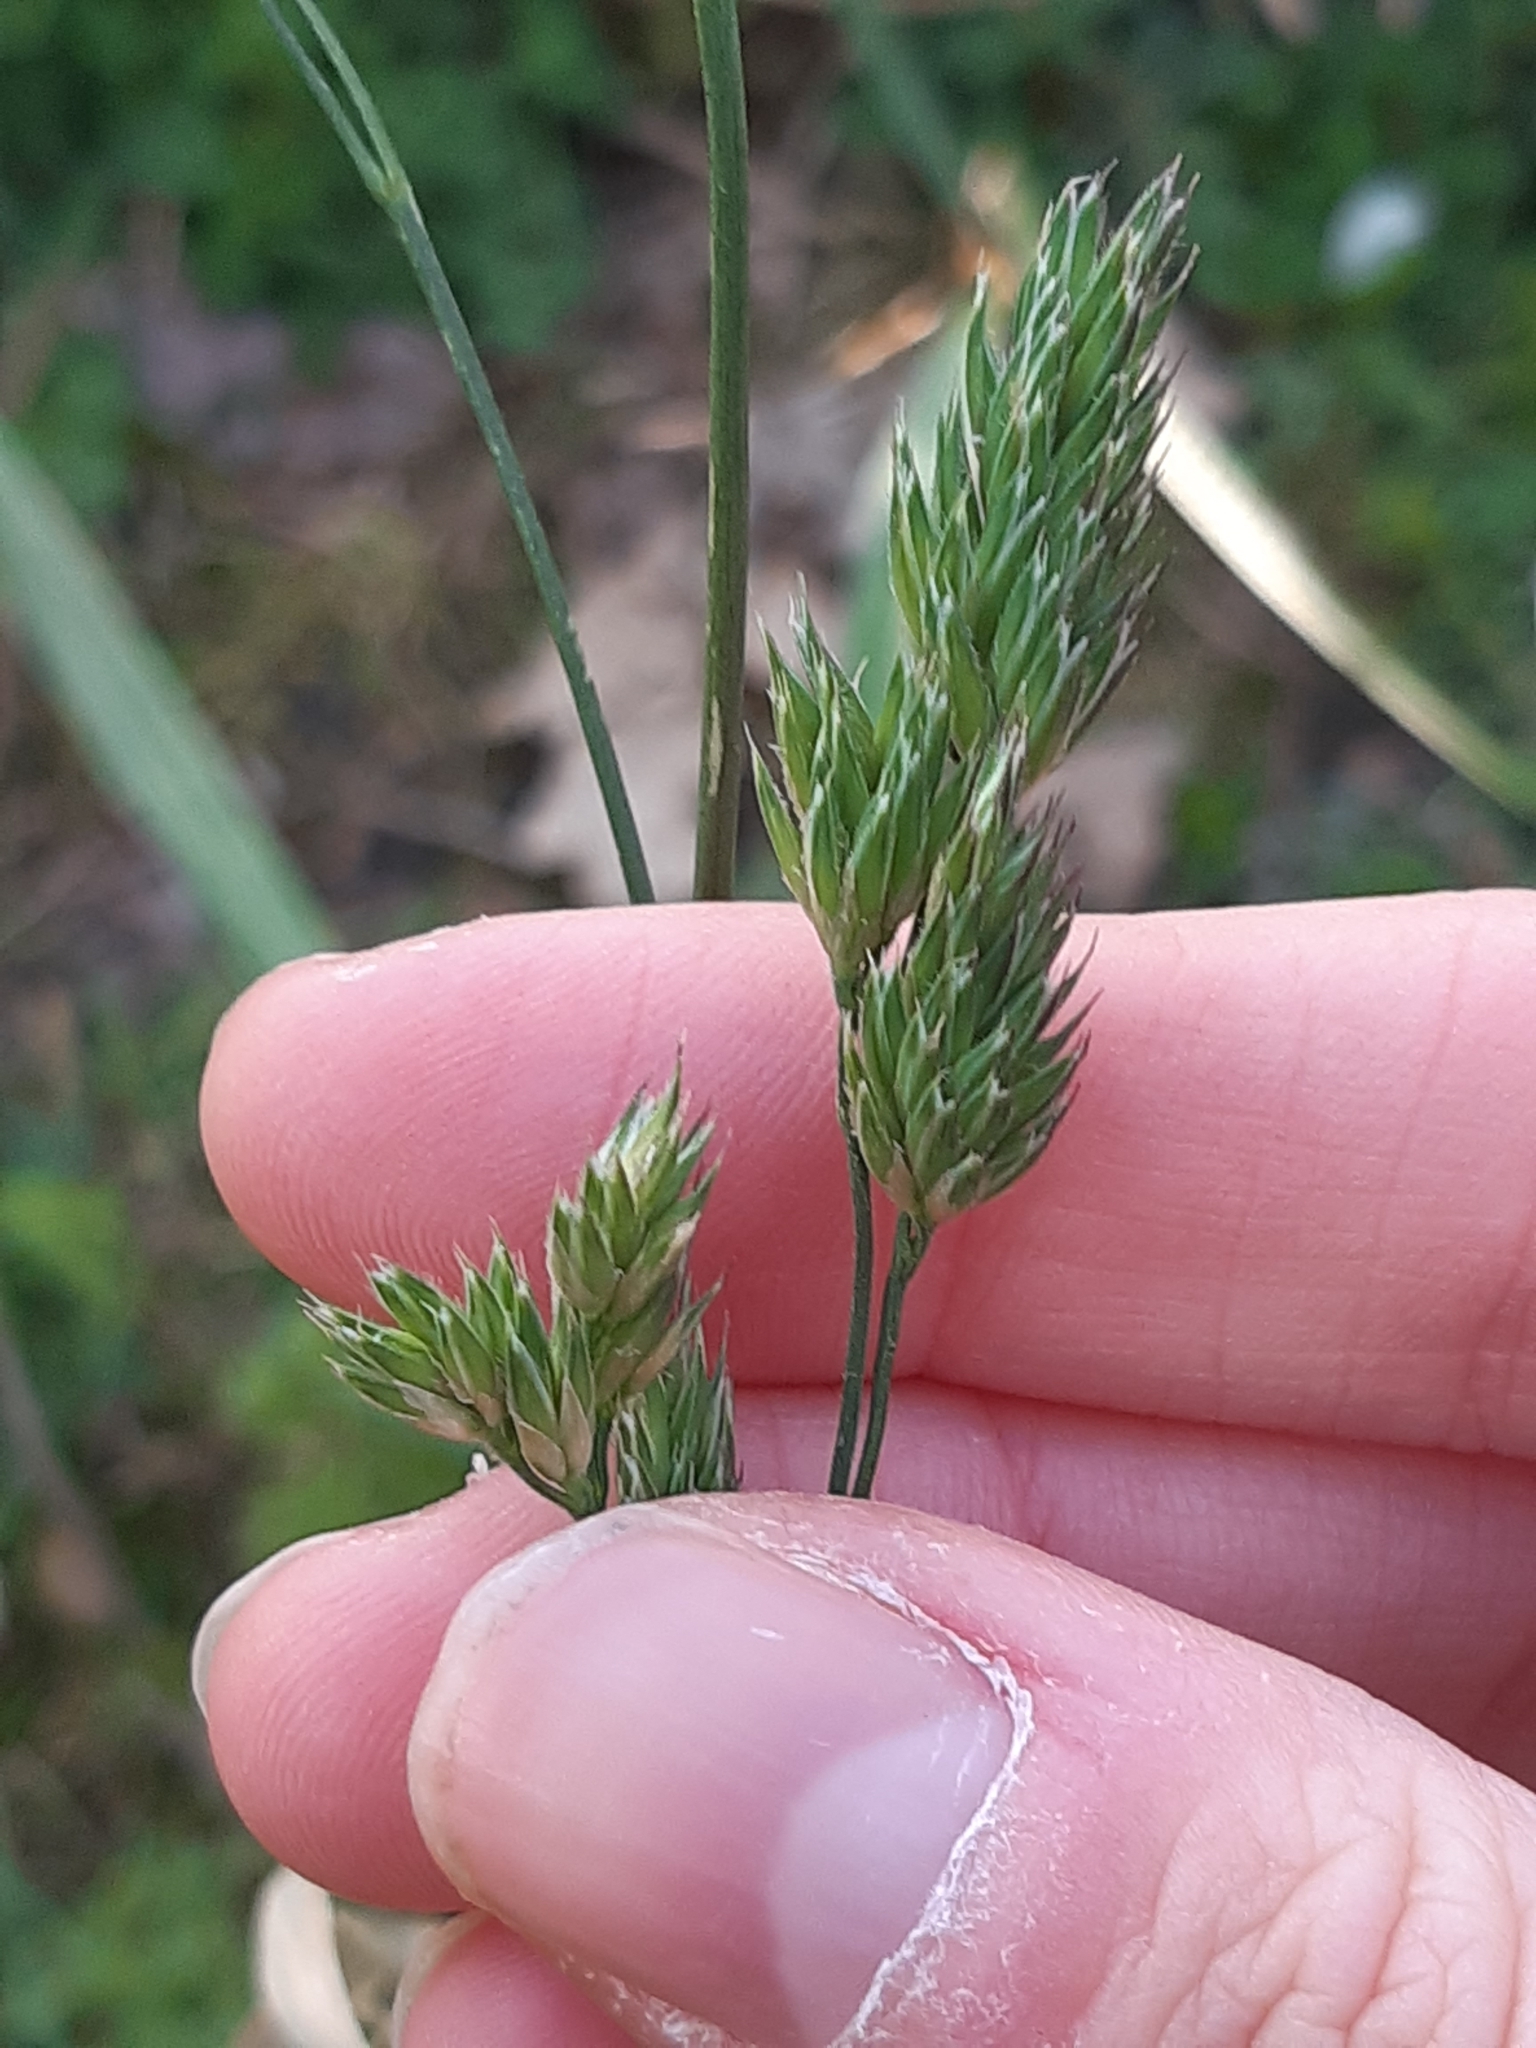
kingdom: Plantae
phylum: Tracheophyta
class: Liliopsida
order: Poales
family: Poaceae
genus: Dactylis
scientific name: Dactylis glomerata
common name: Orchardgrass
